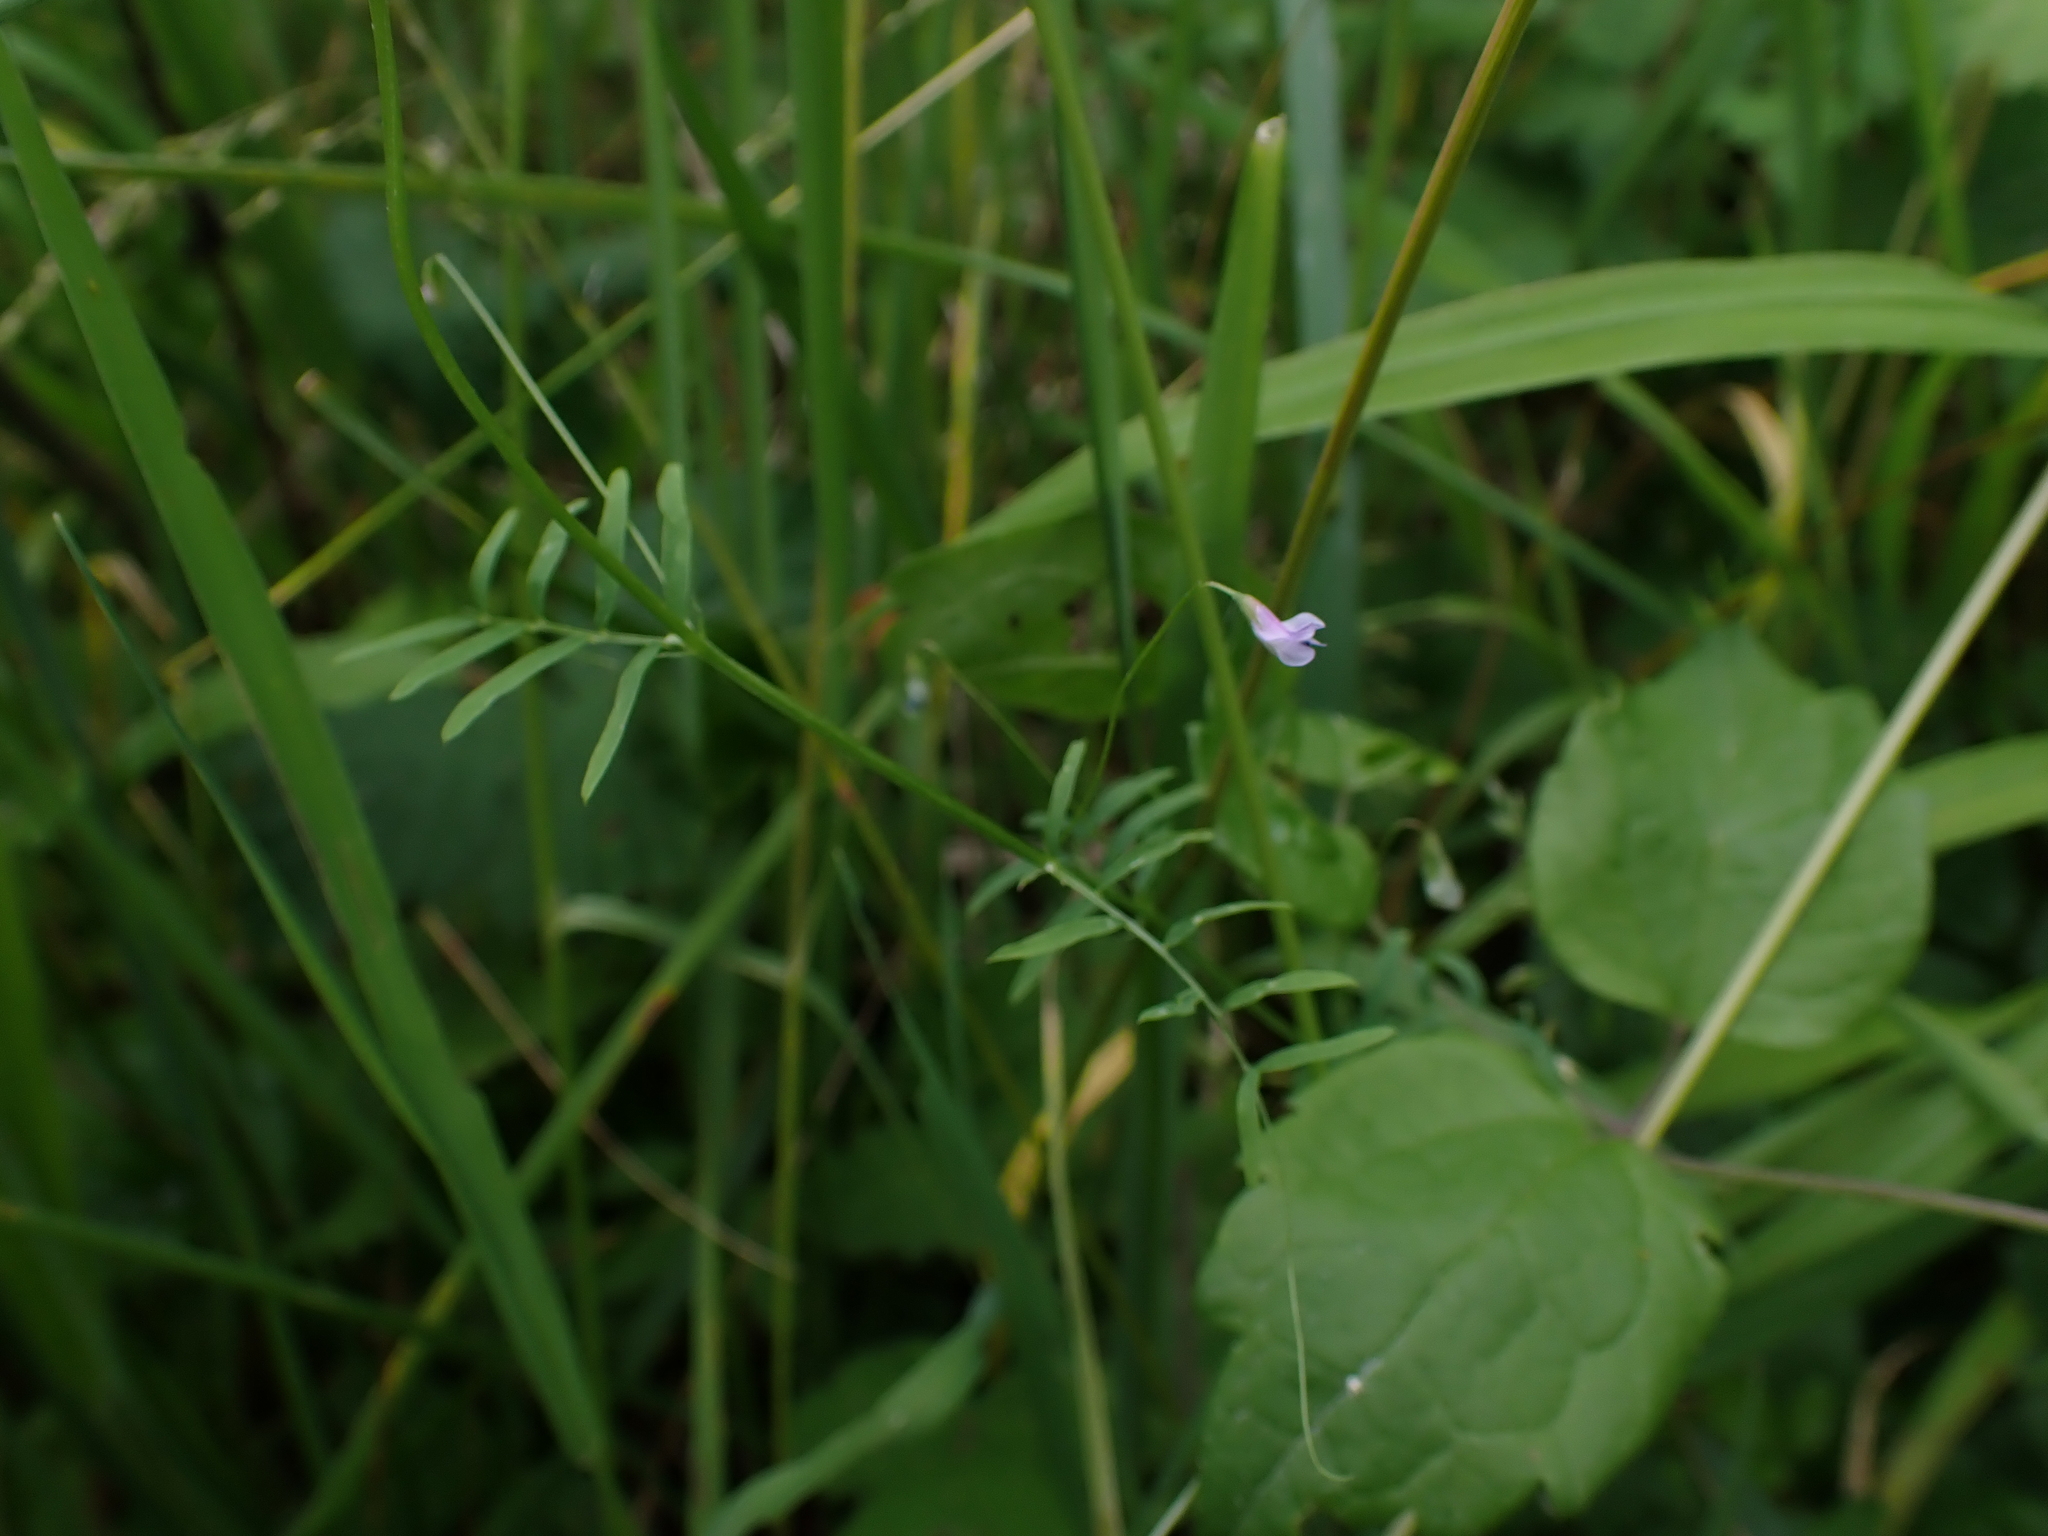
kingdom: Plantae
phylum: Tracheophyta
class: Magnoliopsida
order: Fabales
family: Fabaceae
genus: Vicia
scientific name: Vicia tetrasperma
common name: Smooth tare
